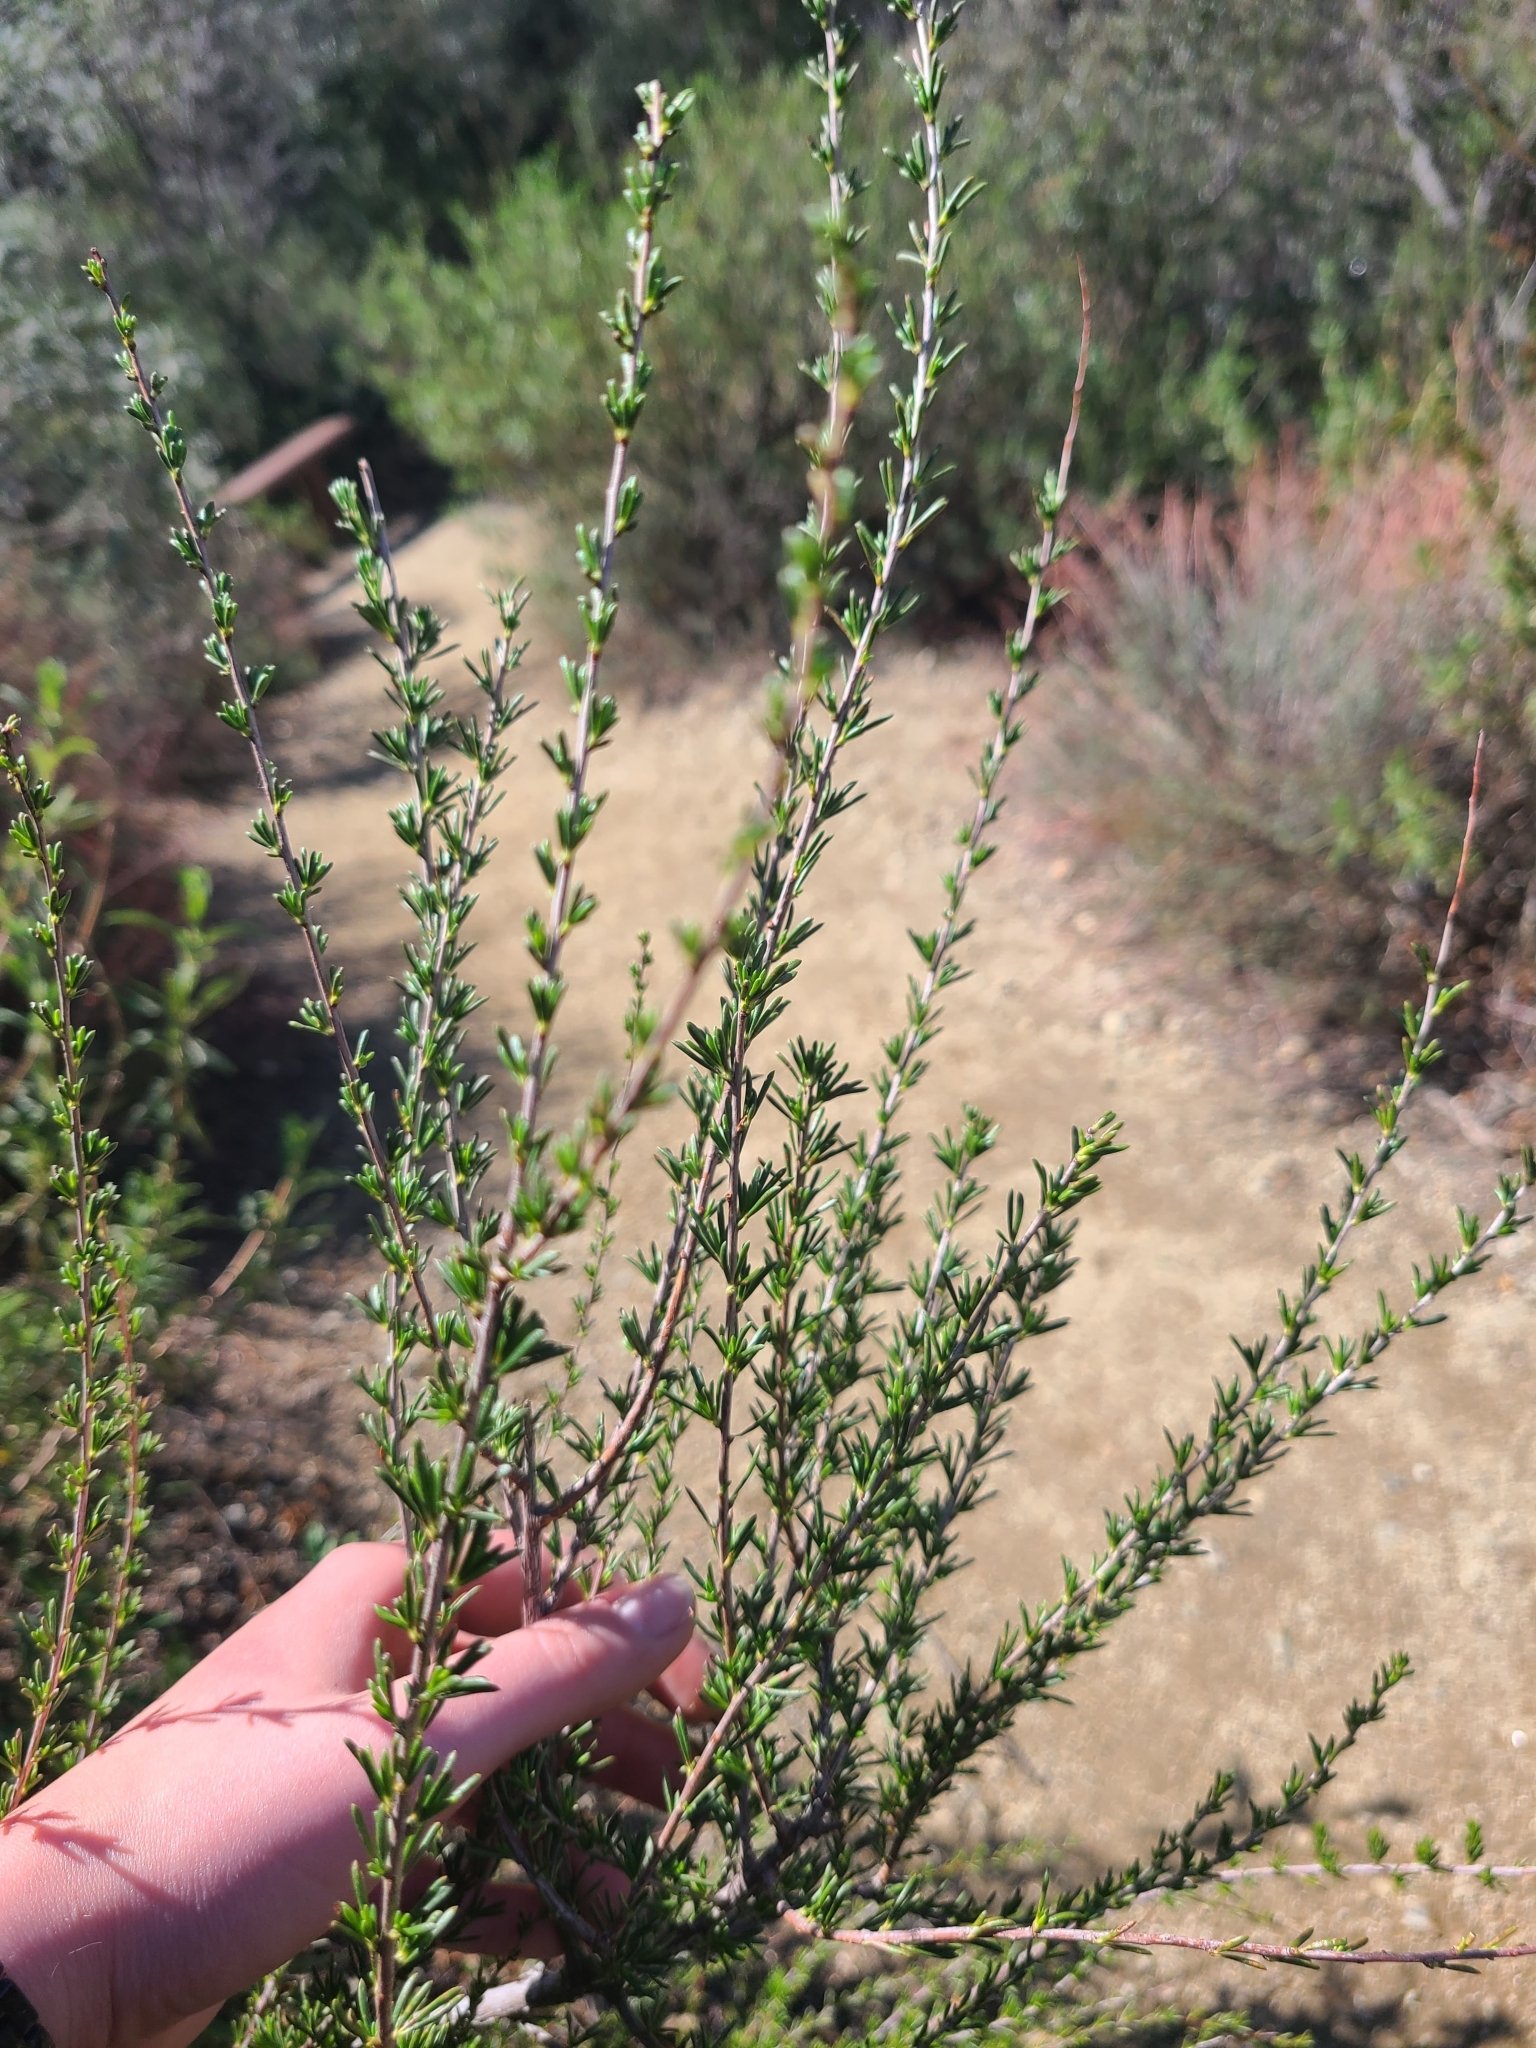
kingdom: Plantae
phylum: Tracheophyta
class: Magnoliopsida
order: Caryophyllales
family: Polygonaceae
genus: Eriogonum
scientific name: Eriogonum fasciculatum
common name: California wild buckwheat
